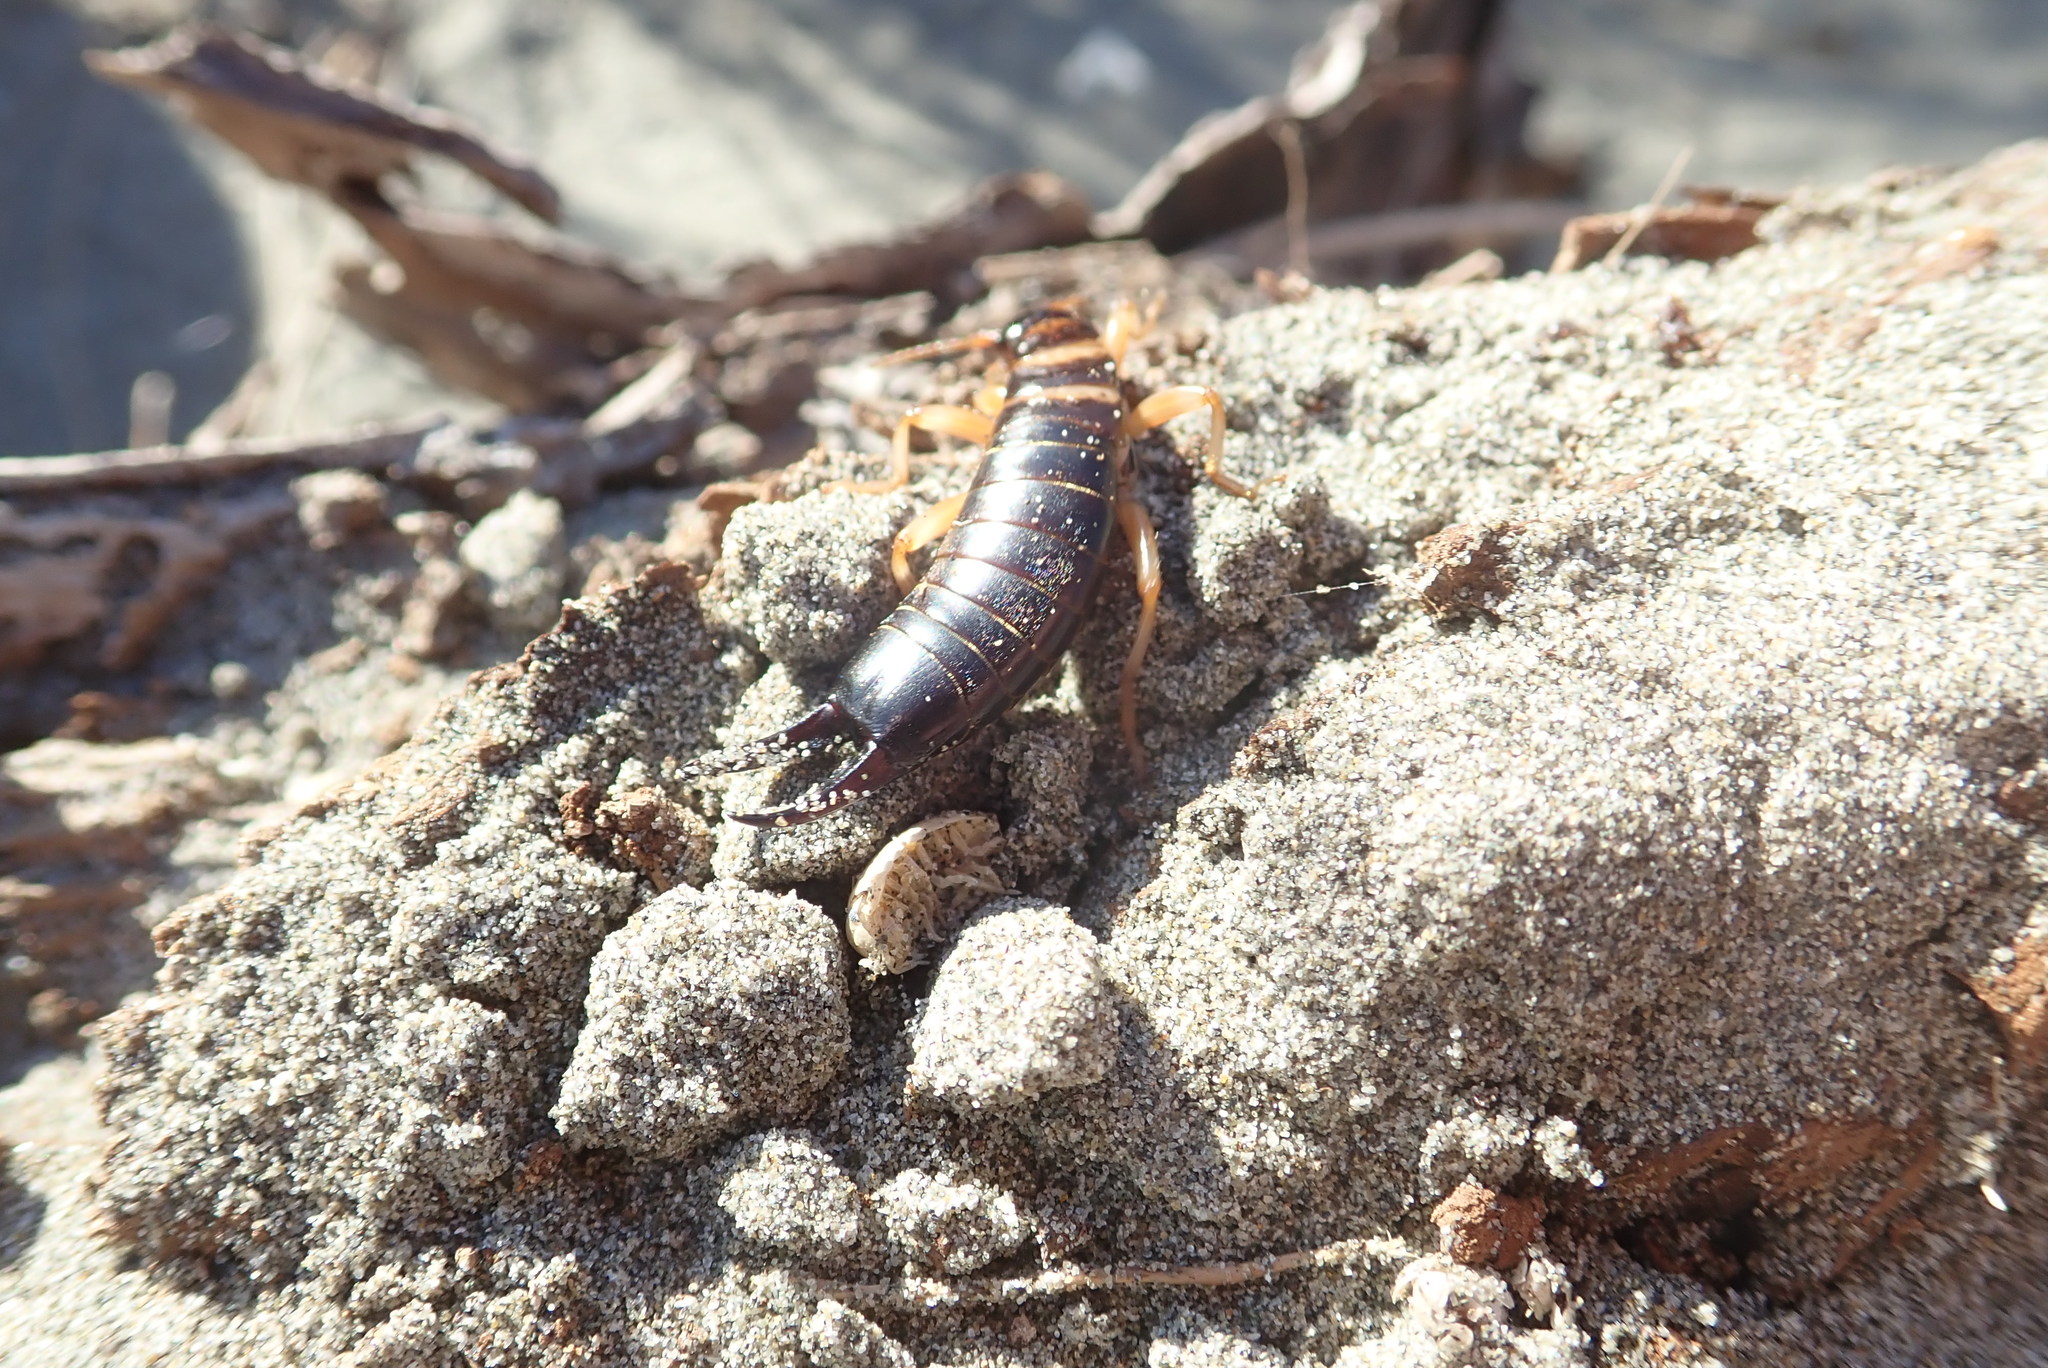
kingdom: Animalia
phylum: Arthropoda
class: Insecta
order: Dermaptera
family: Anisolabididae
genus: Anisolabis
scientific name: Anisolabis littorea
